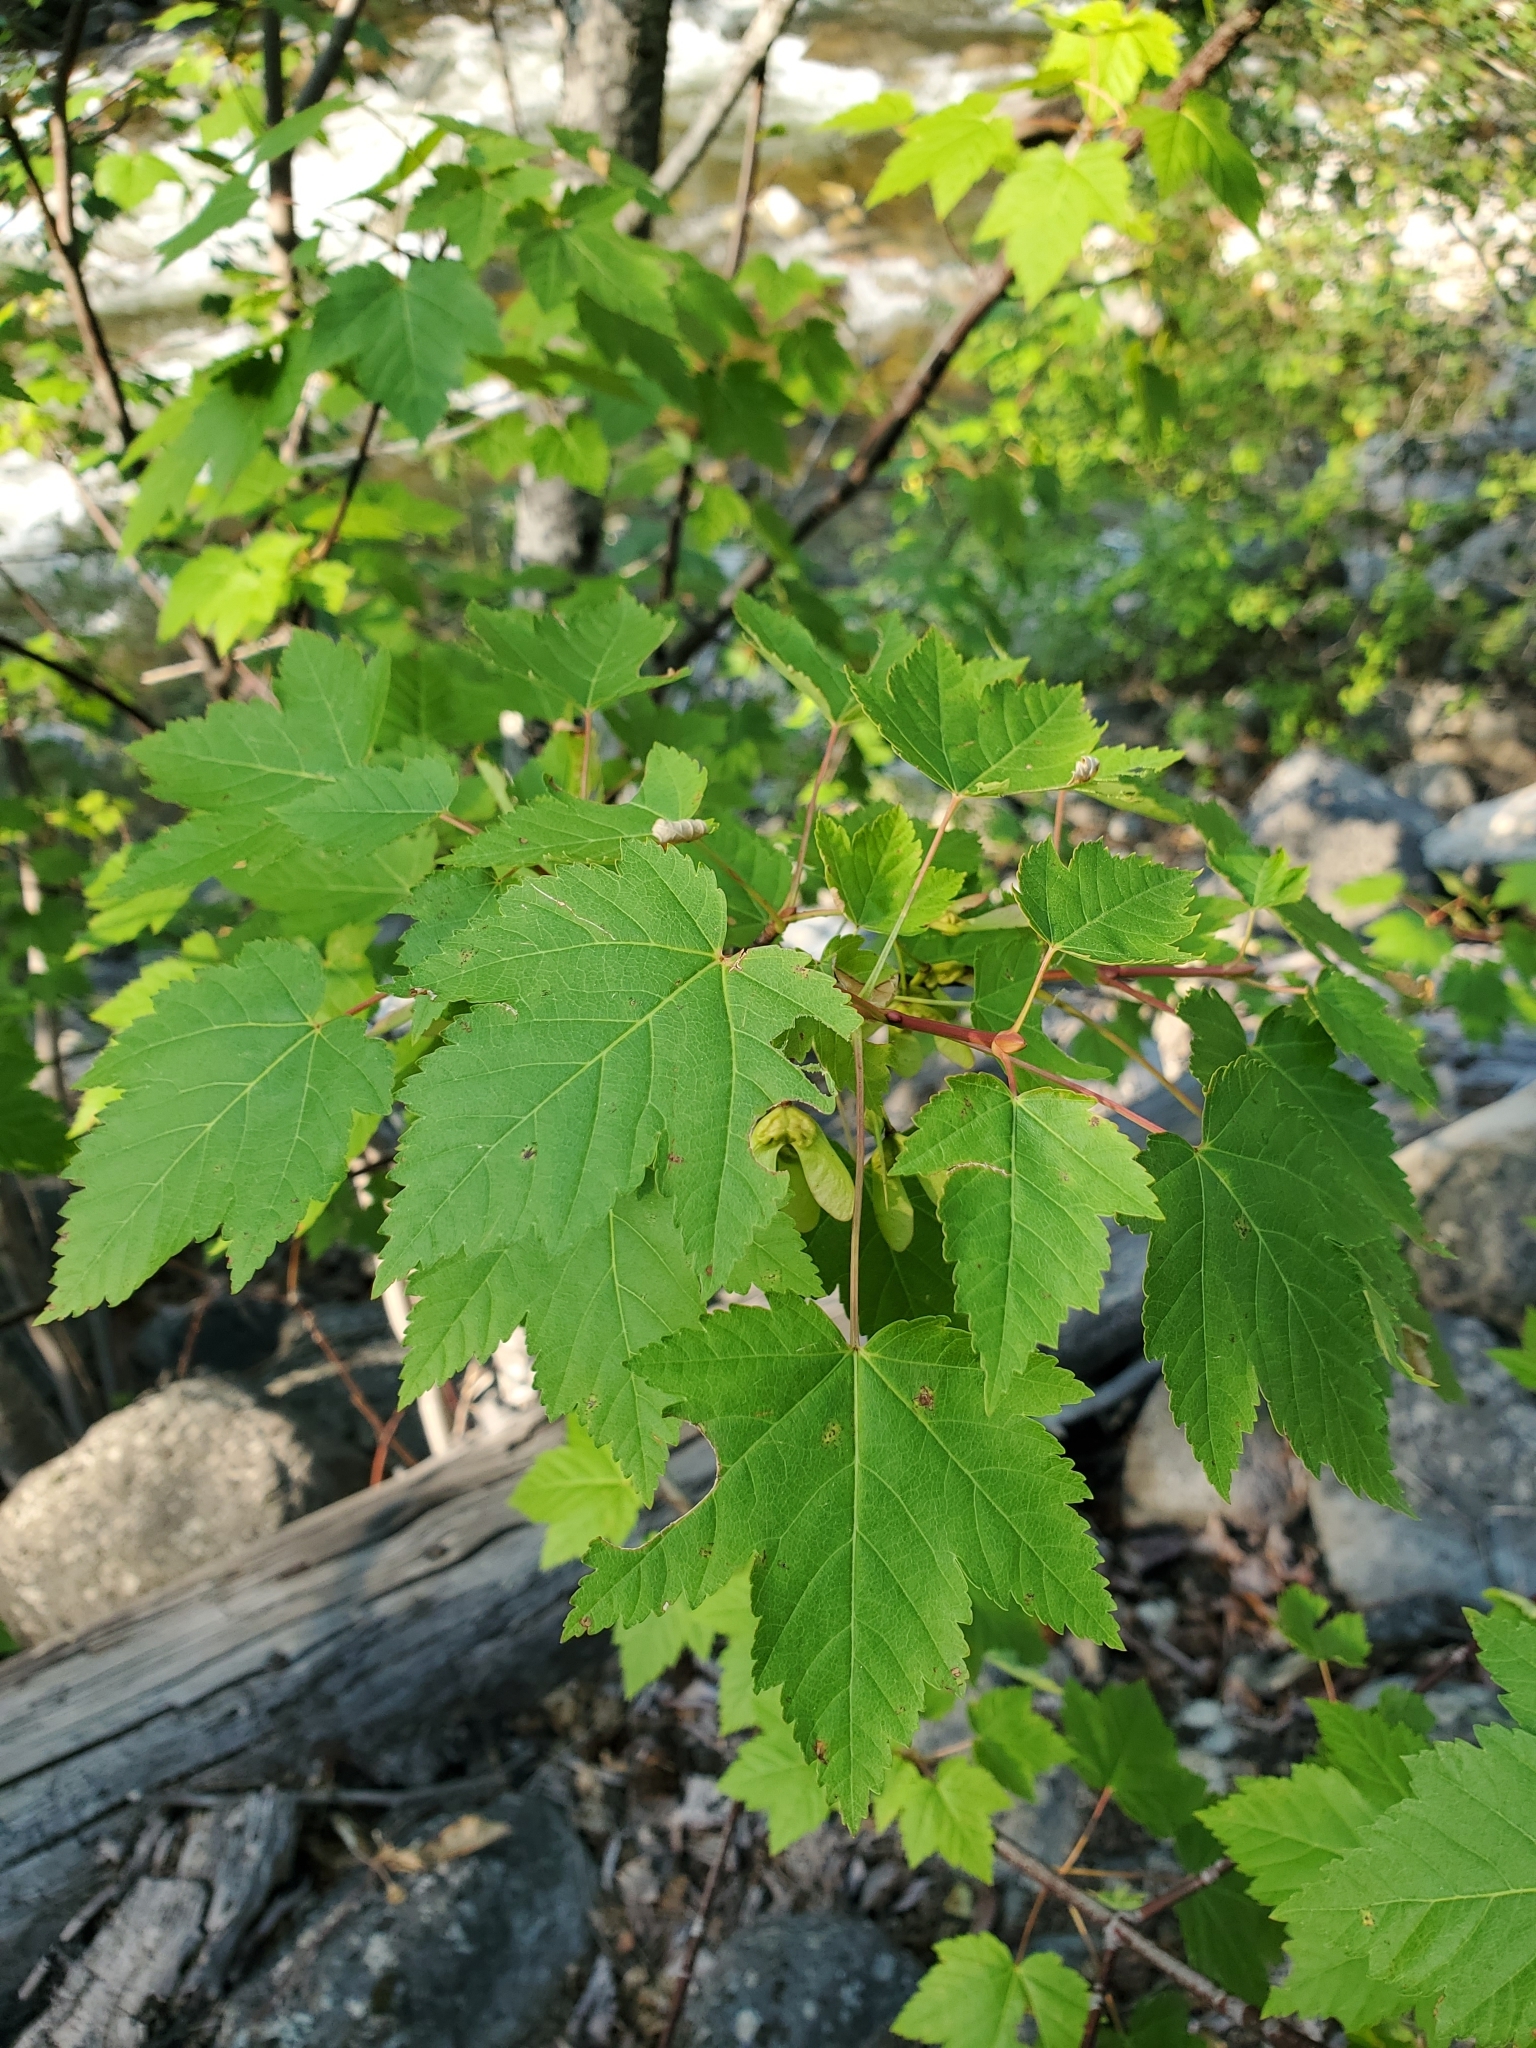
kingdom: Plantae
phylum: Tracheophyta
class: Magnoliopsida
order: Sapindales
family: Sapindaceae
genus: Acer
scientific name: Acer glabrum
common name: Rocky mountain maple
